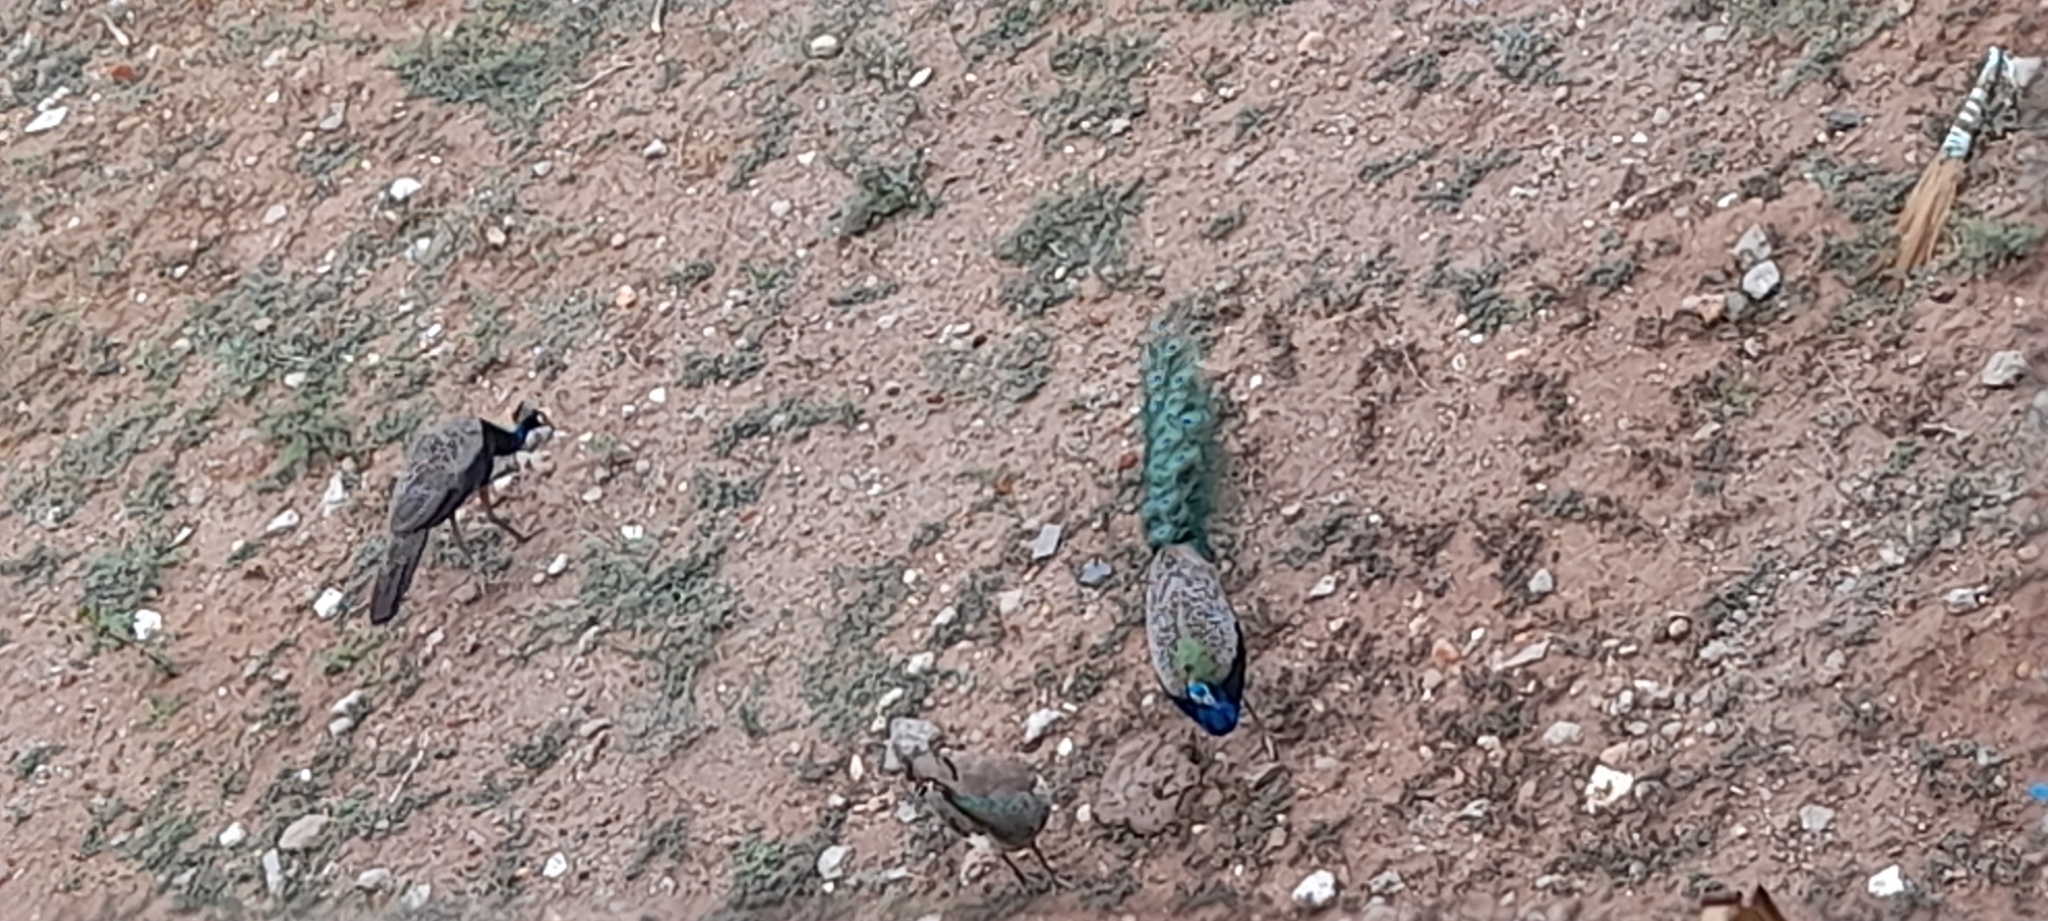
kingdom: Animalia
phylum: Chordata
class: Aves
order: Galliformes
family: Phasianidae
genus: Pavo
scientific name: Pavo cristatus
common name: Indian peafowl
